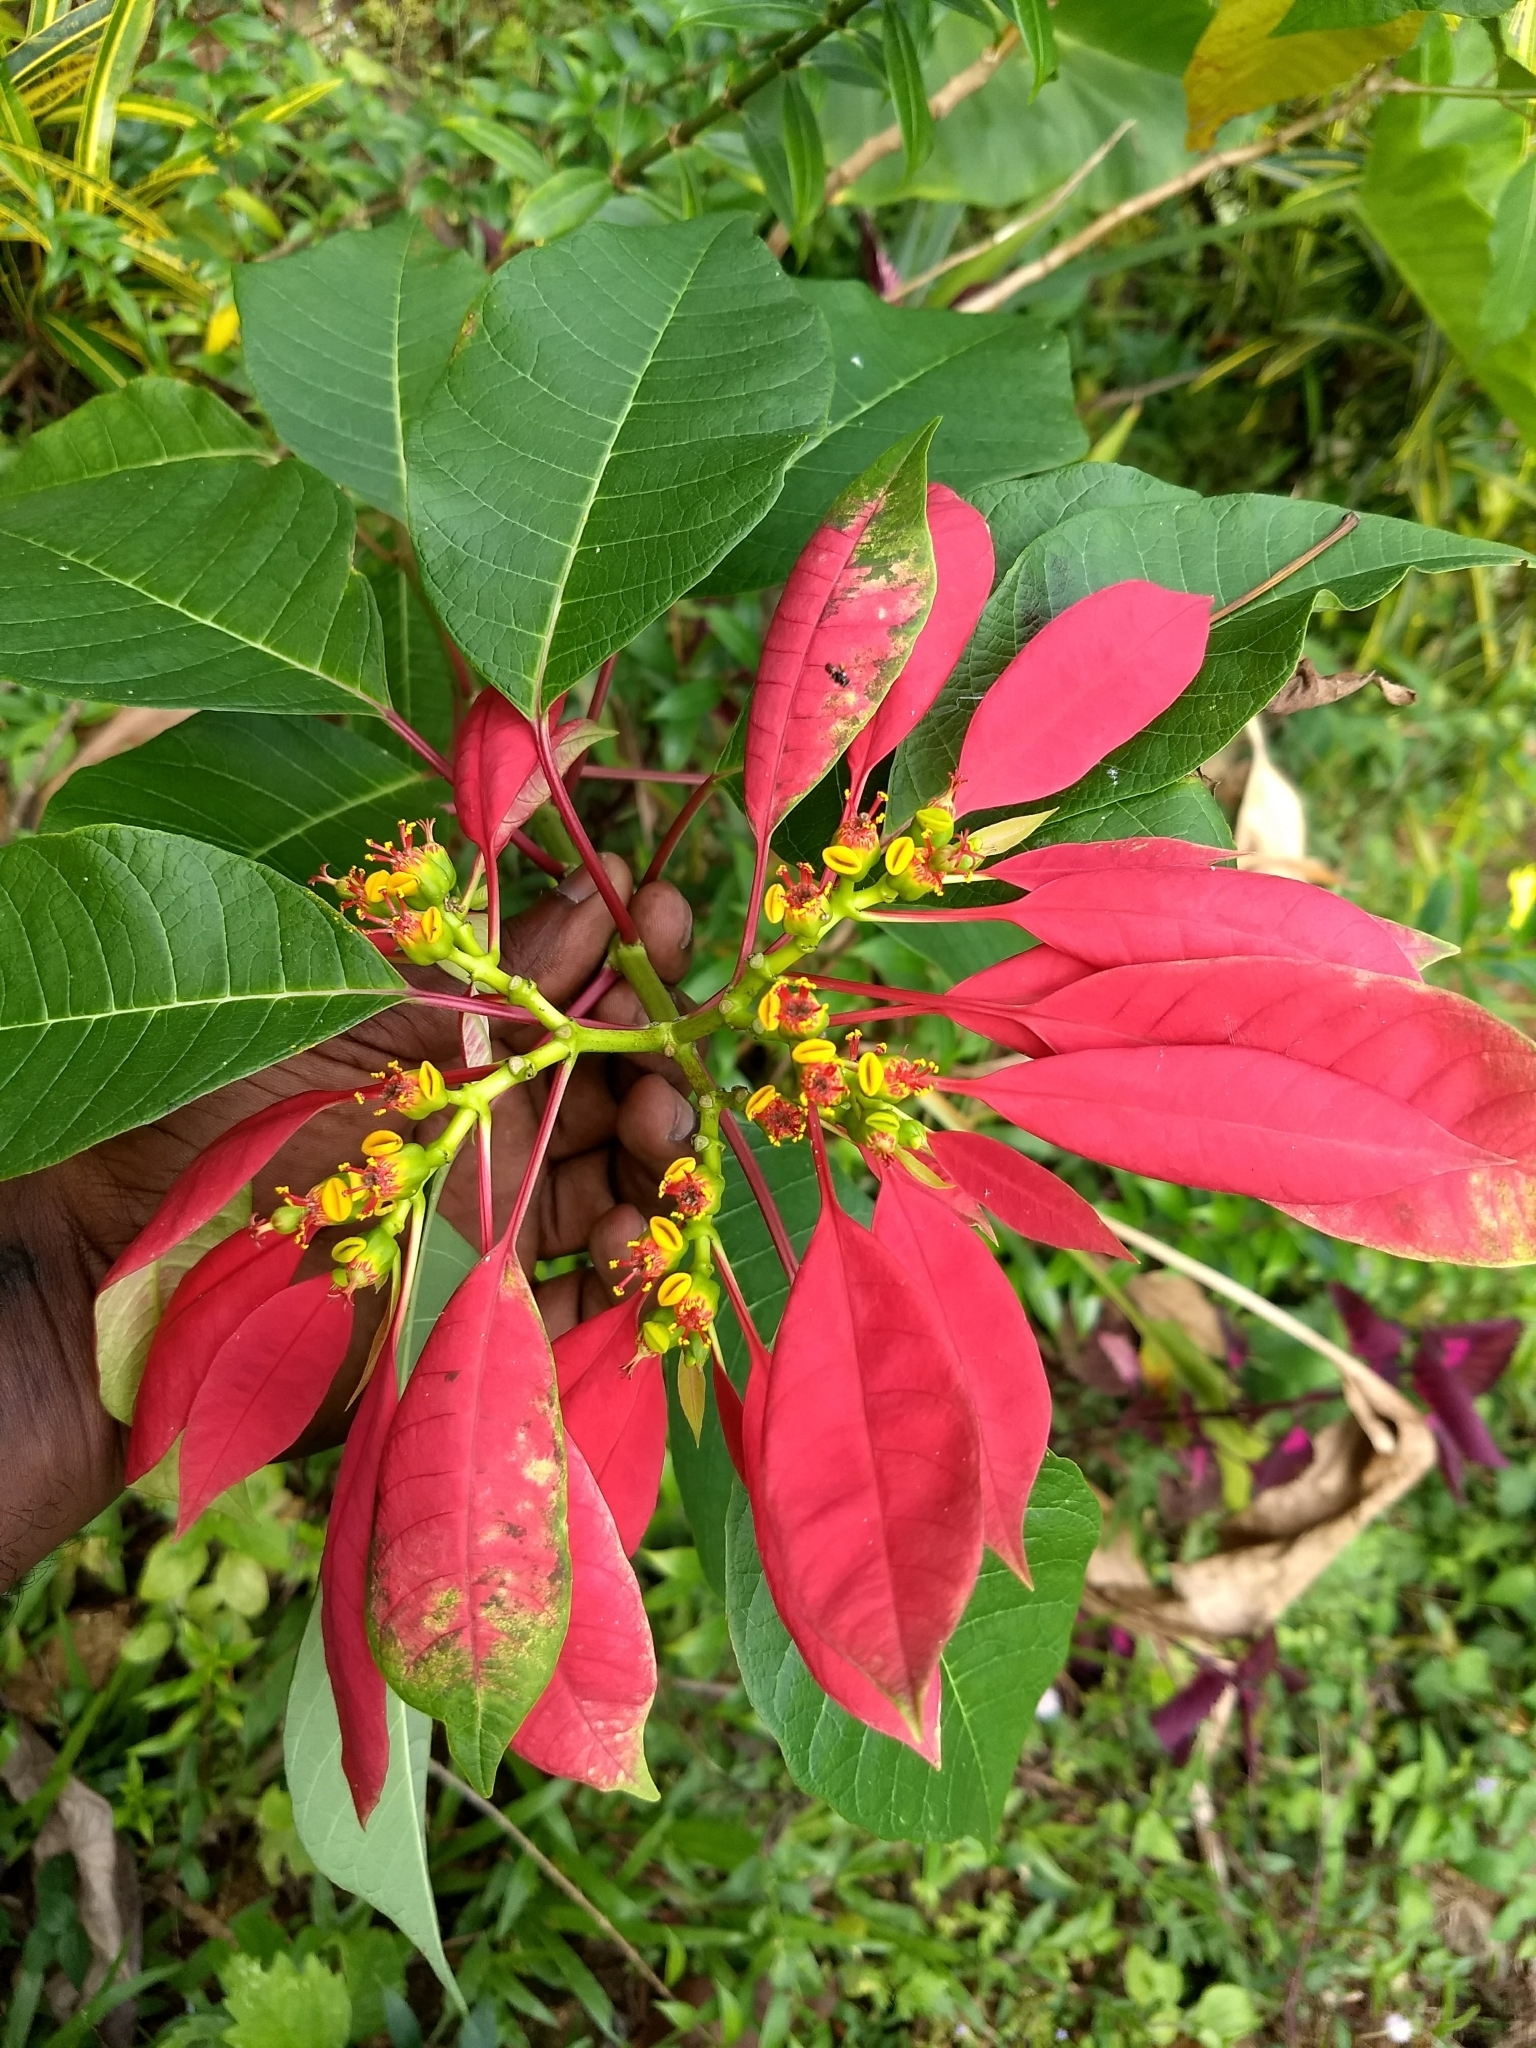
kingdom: Plantae
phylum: Tracheophyta
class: Magnoliopsida
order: Malpighiales
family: Euphorbiaceae
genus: Euphorbia
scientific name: Euphorbia pulcherrima
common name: Christmas-flower
